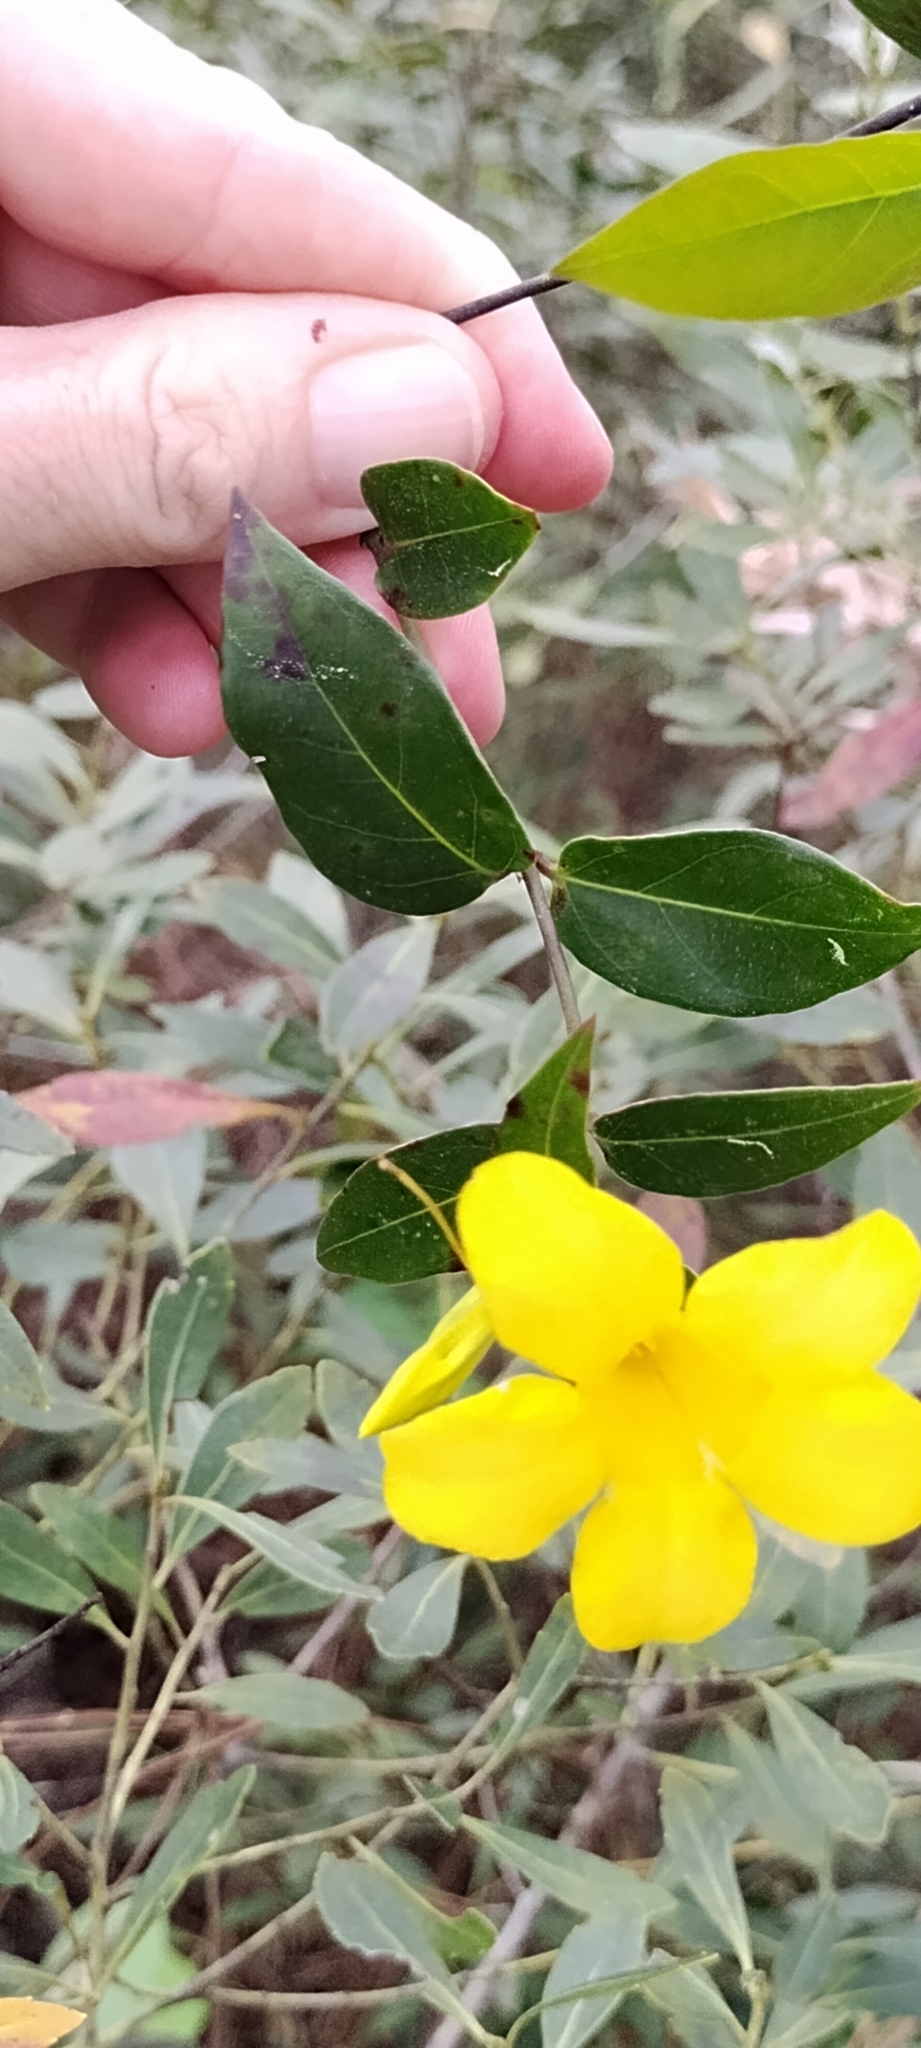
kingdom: Plantae
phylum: Tracheophyta
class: Magnoliopsida
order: Gentianales
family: Gelsemiaceae
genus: Gelsemium
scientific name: Gelsemium rankinii
